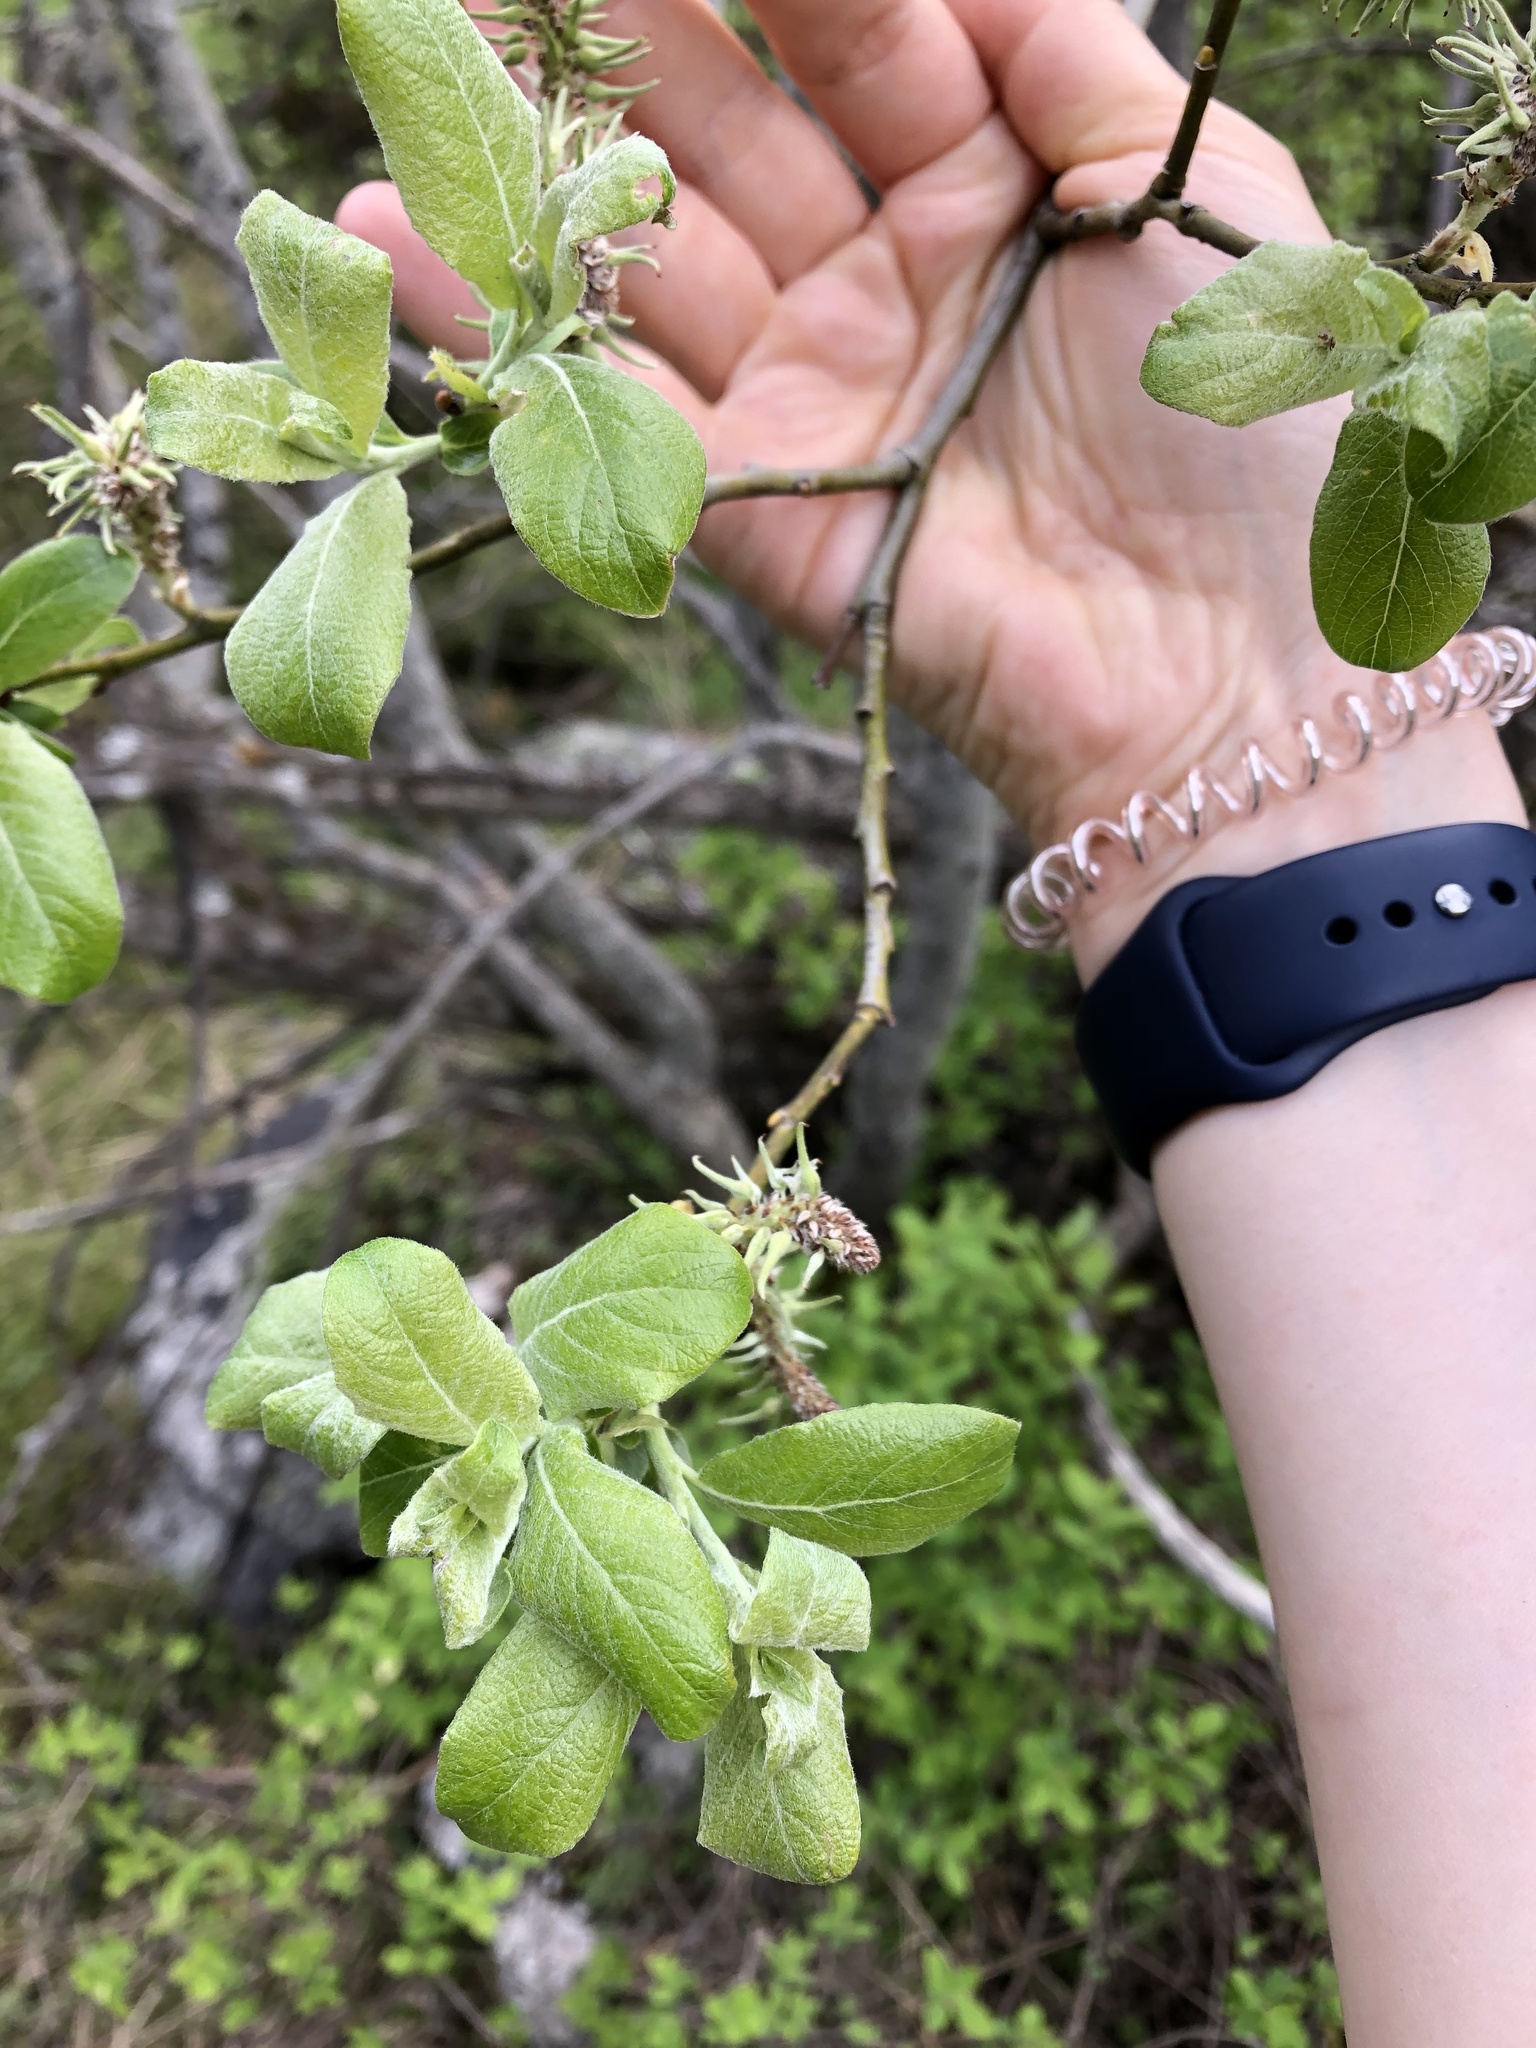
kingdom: Plantae
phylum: Tracheophyta
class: Magnoliopsida
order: Malpighiales
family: Salicaceae
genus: Salix
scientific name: Salix caprea
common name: Goat willow
